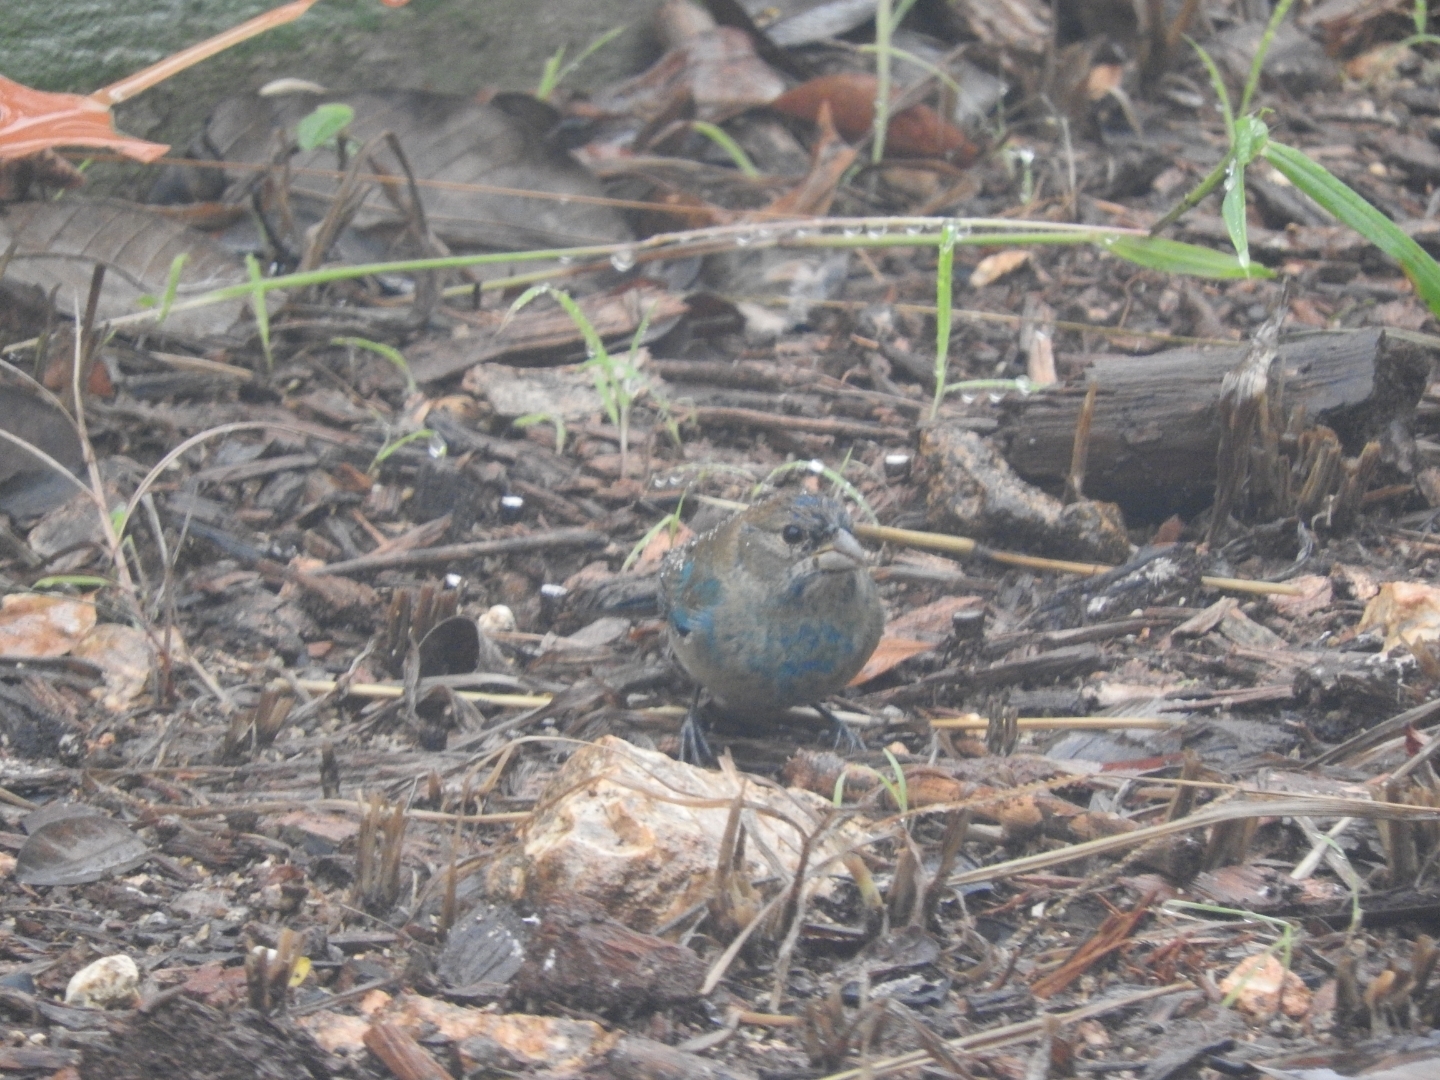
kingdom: Animalia
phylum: Chordata
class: Aves
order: Passeriformes
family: Cardinalidae
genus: Passerina
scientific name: Passerina cyanea
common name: Indigo bunting
